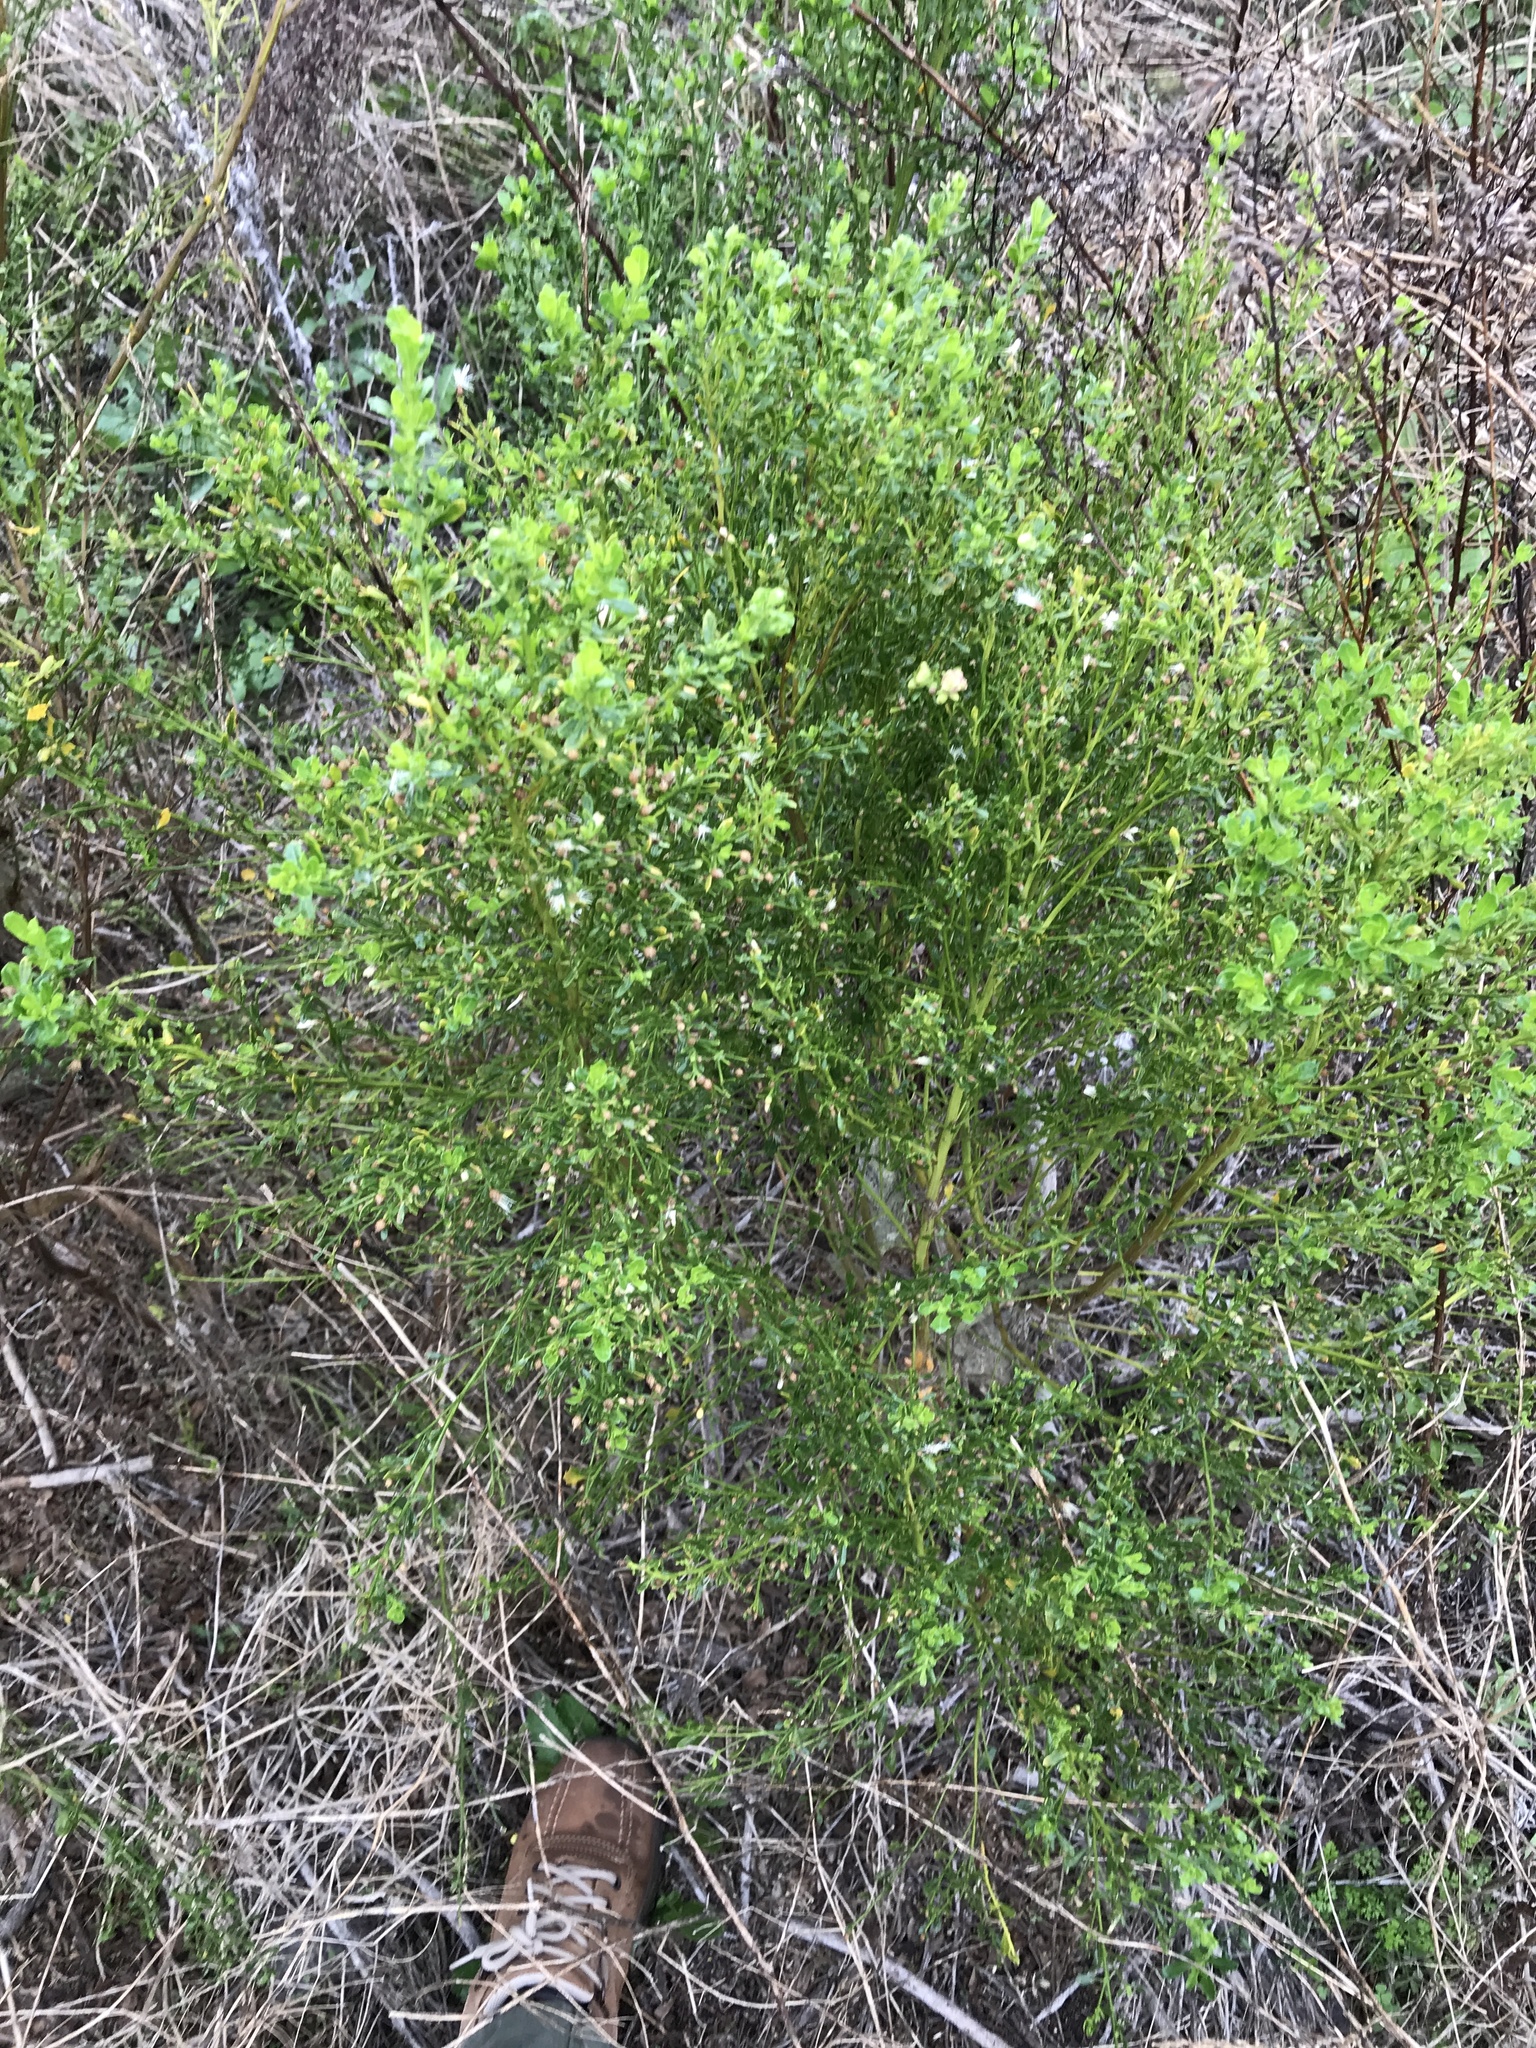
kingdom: Plantae
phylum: Tracheophyta
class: Magnoliopsida
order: Asterales
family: Asteraceae
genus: Baccharis
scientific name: Baccharis pilularis
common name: Coyotebrush
